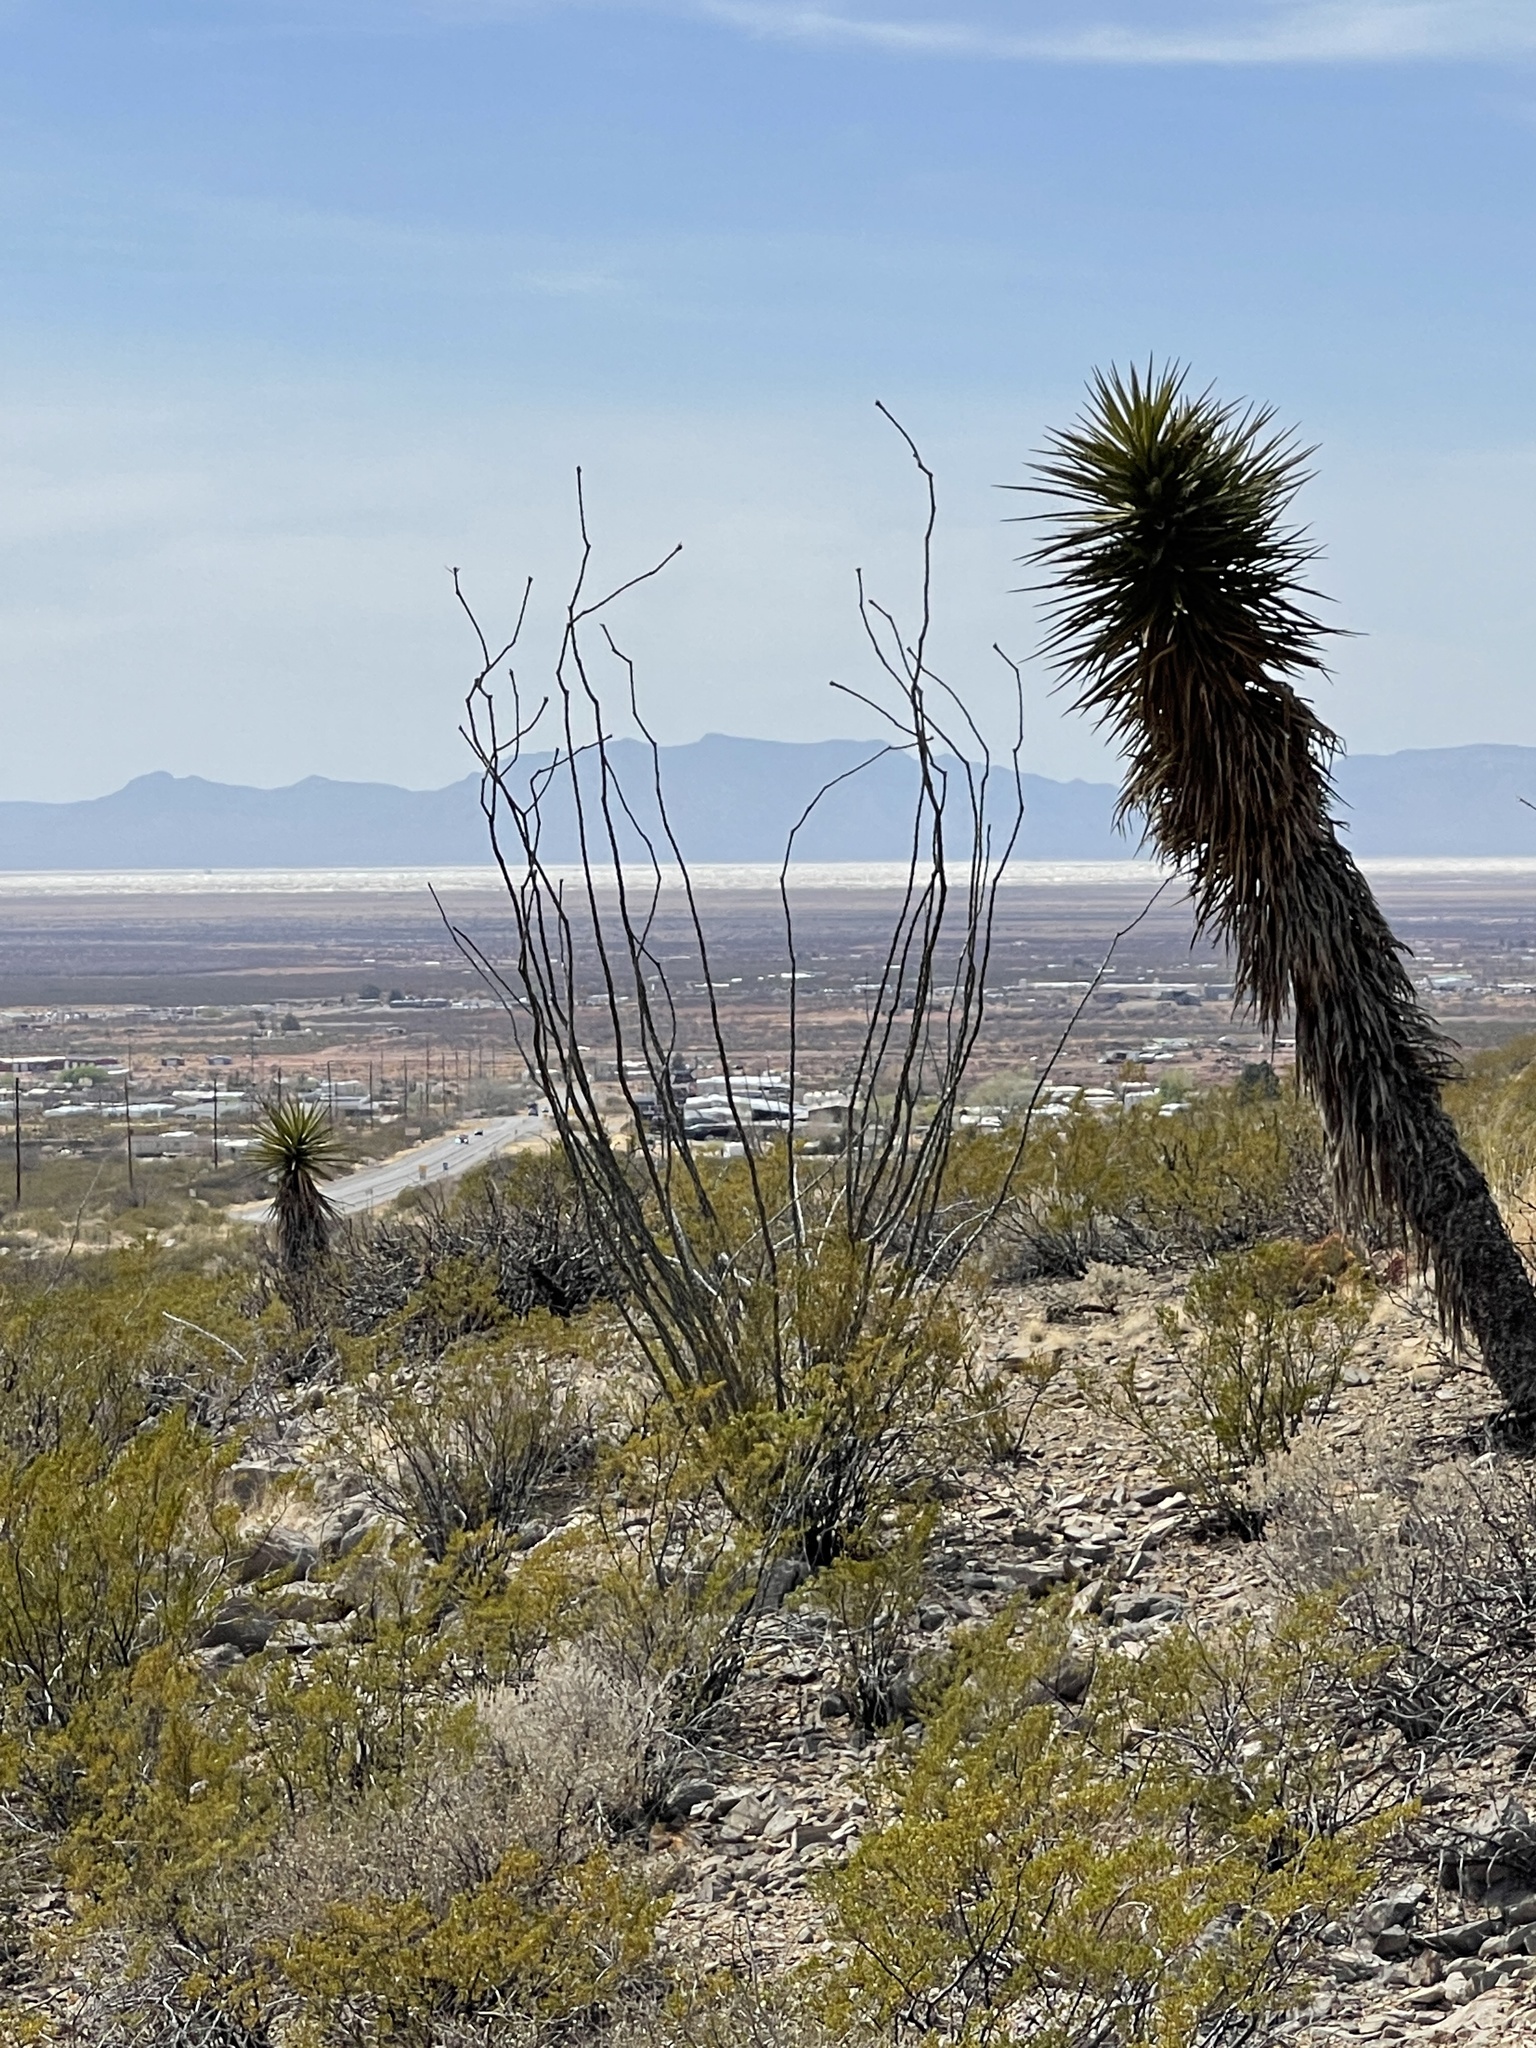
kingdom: Plantae
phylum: Tracheophyta
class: Magnoliopsida
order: Ericales
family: Fouquieriaceae
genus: Fouquieria
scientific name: Fouquieria splendens
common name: Vine-cactus
